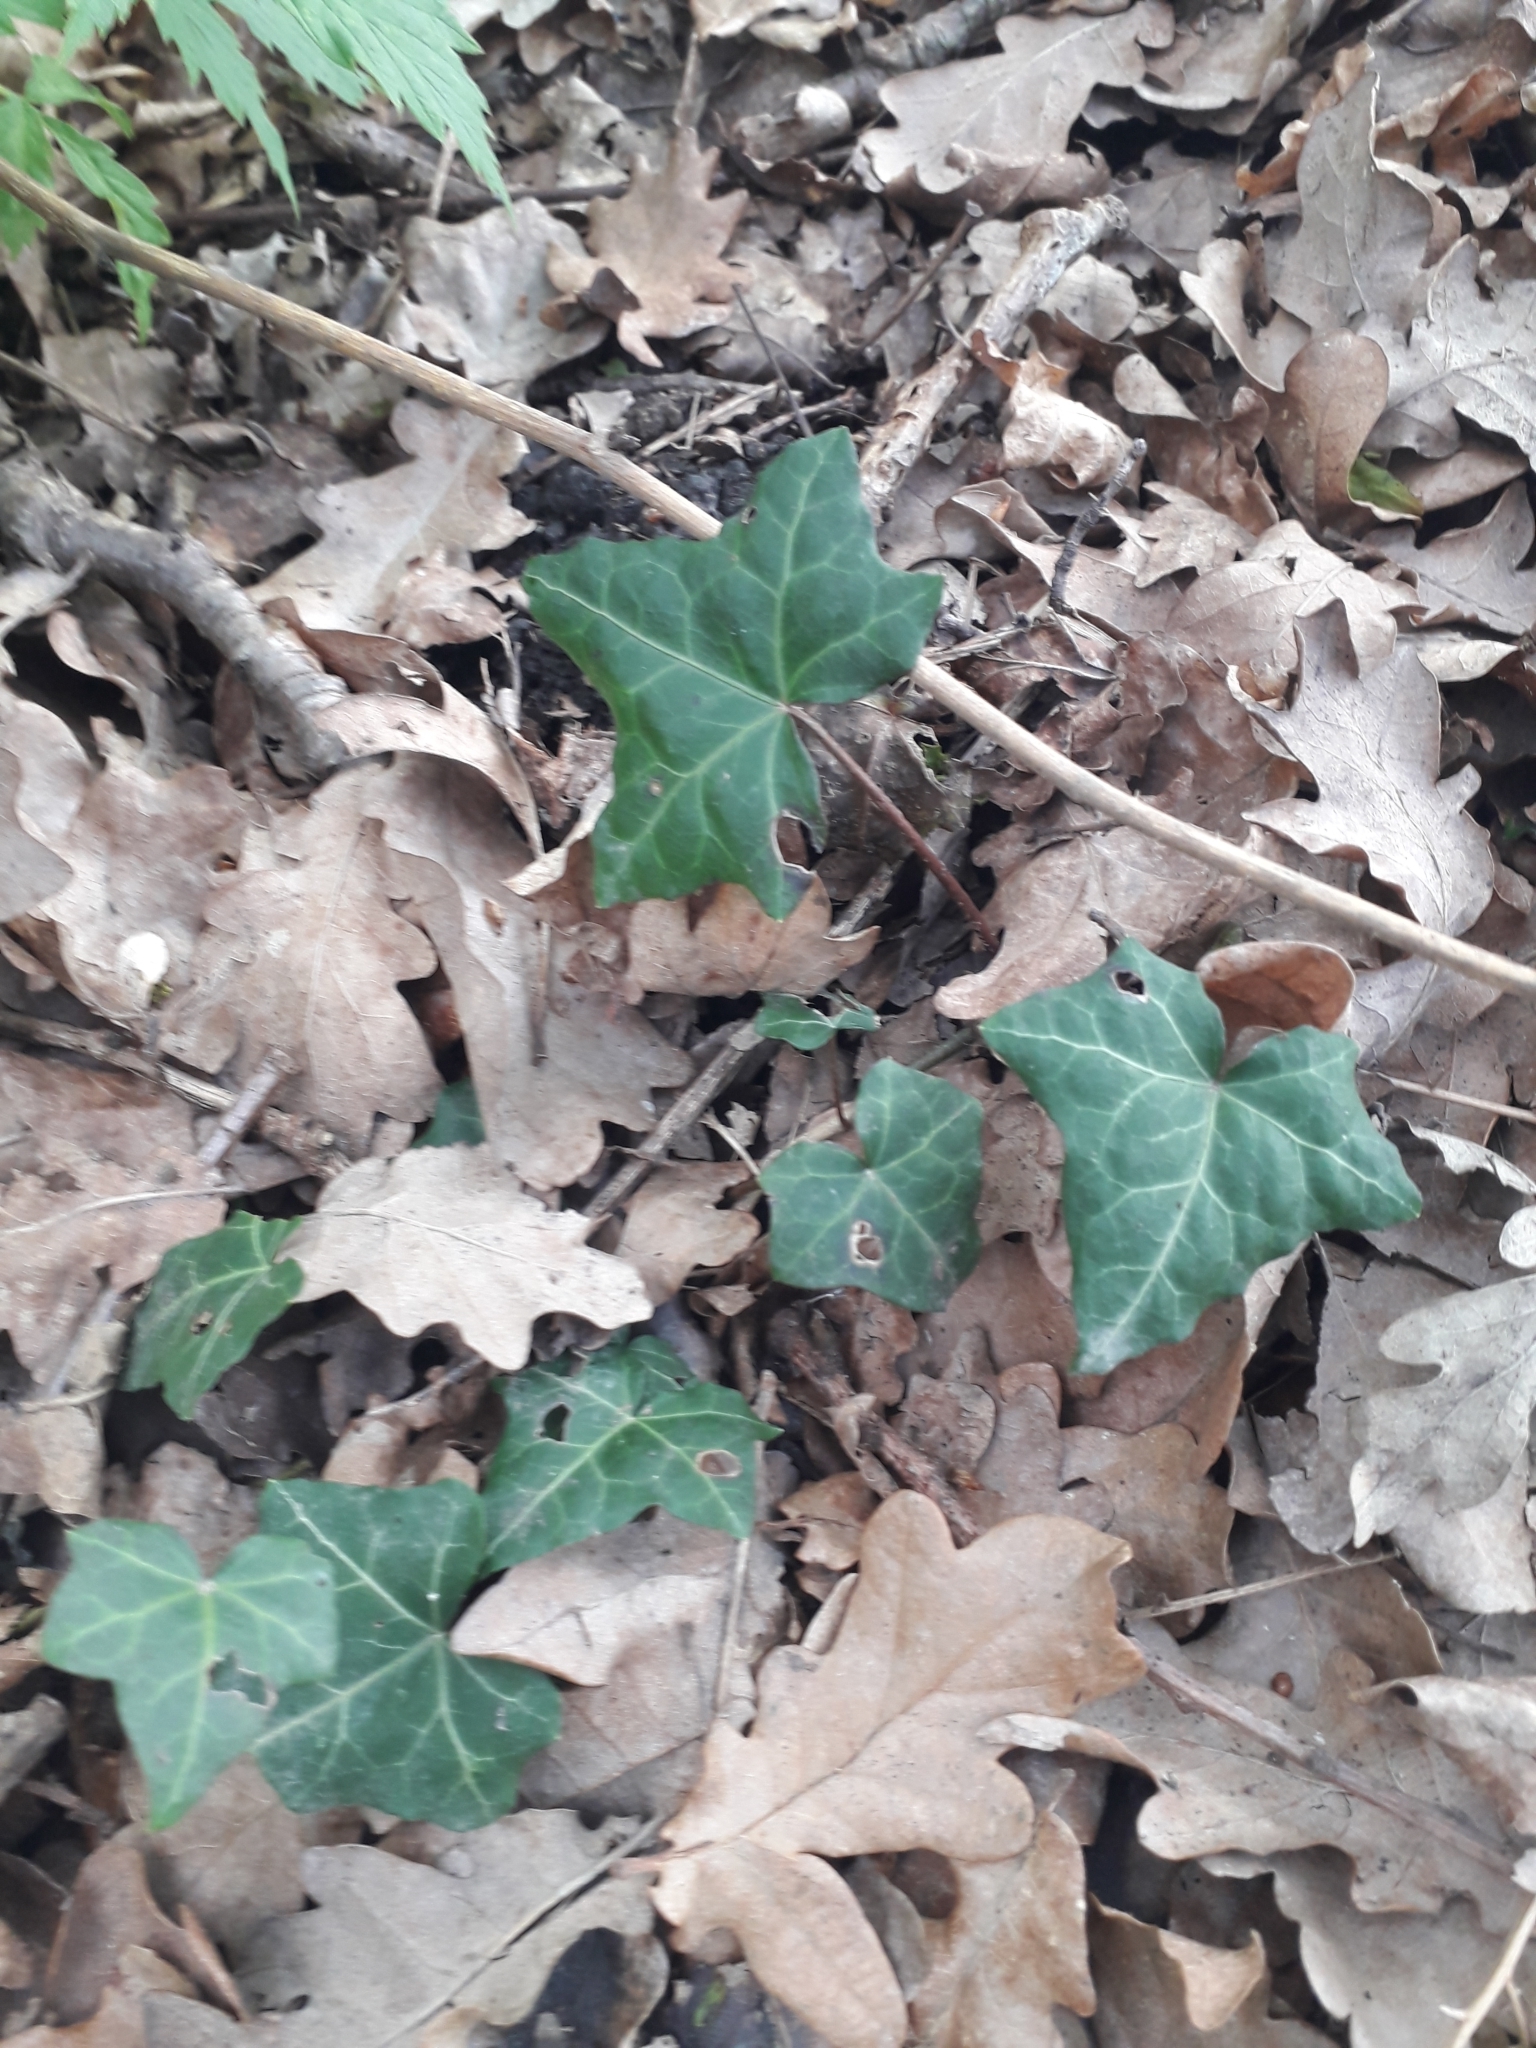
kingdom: Plantae
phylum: Tracheophyta
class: Magnoliopsida
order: Apiales
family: Araliaceae
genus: Hedera
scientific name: Hedera helix
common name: Ivy
